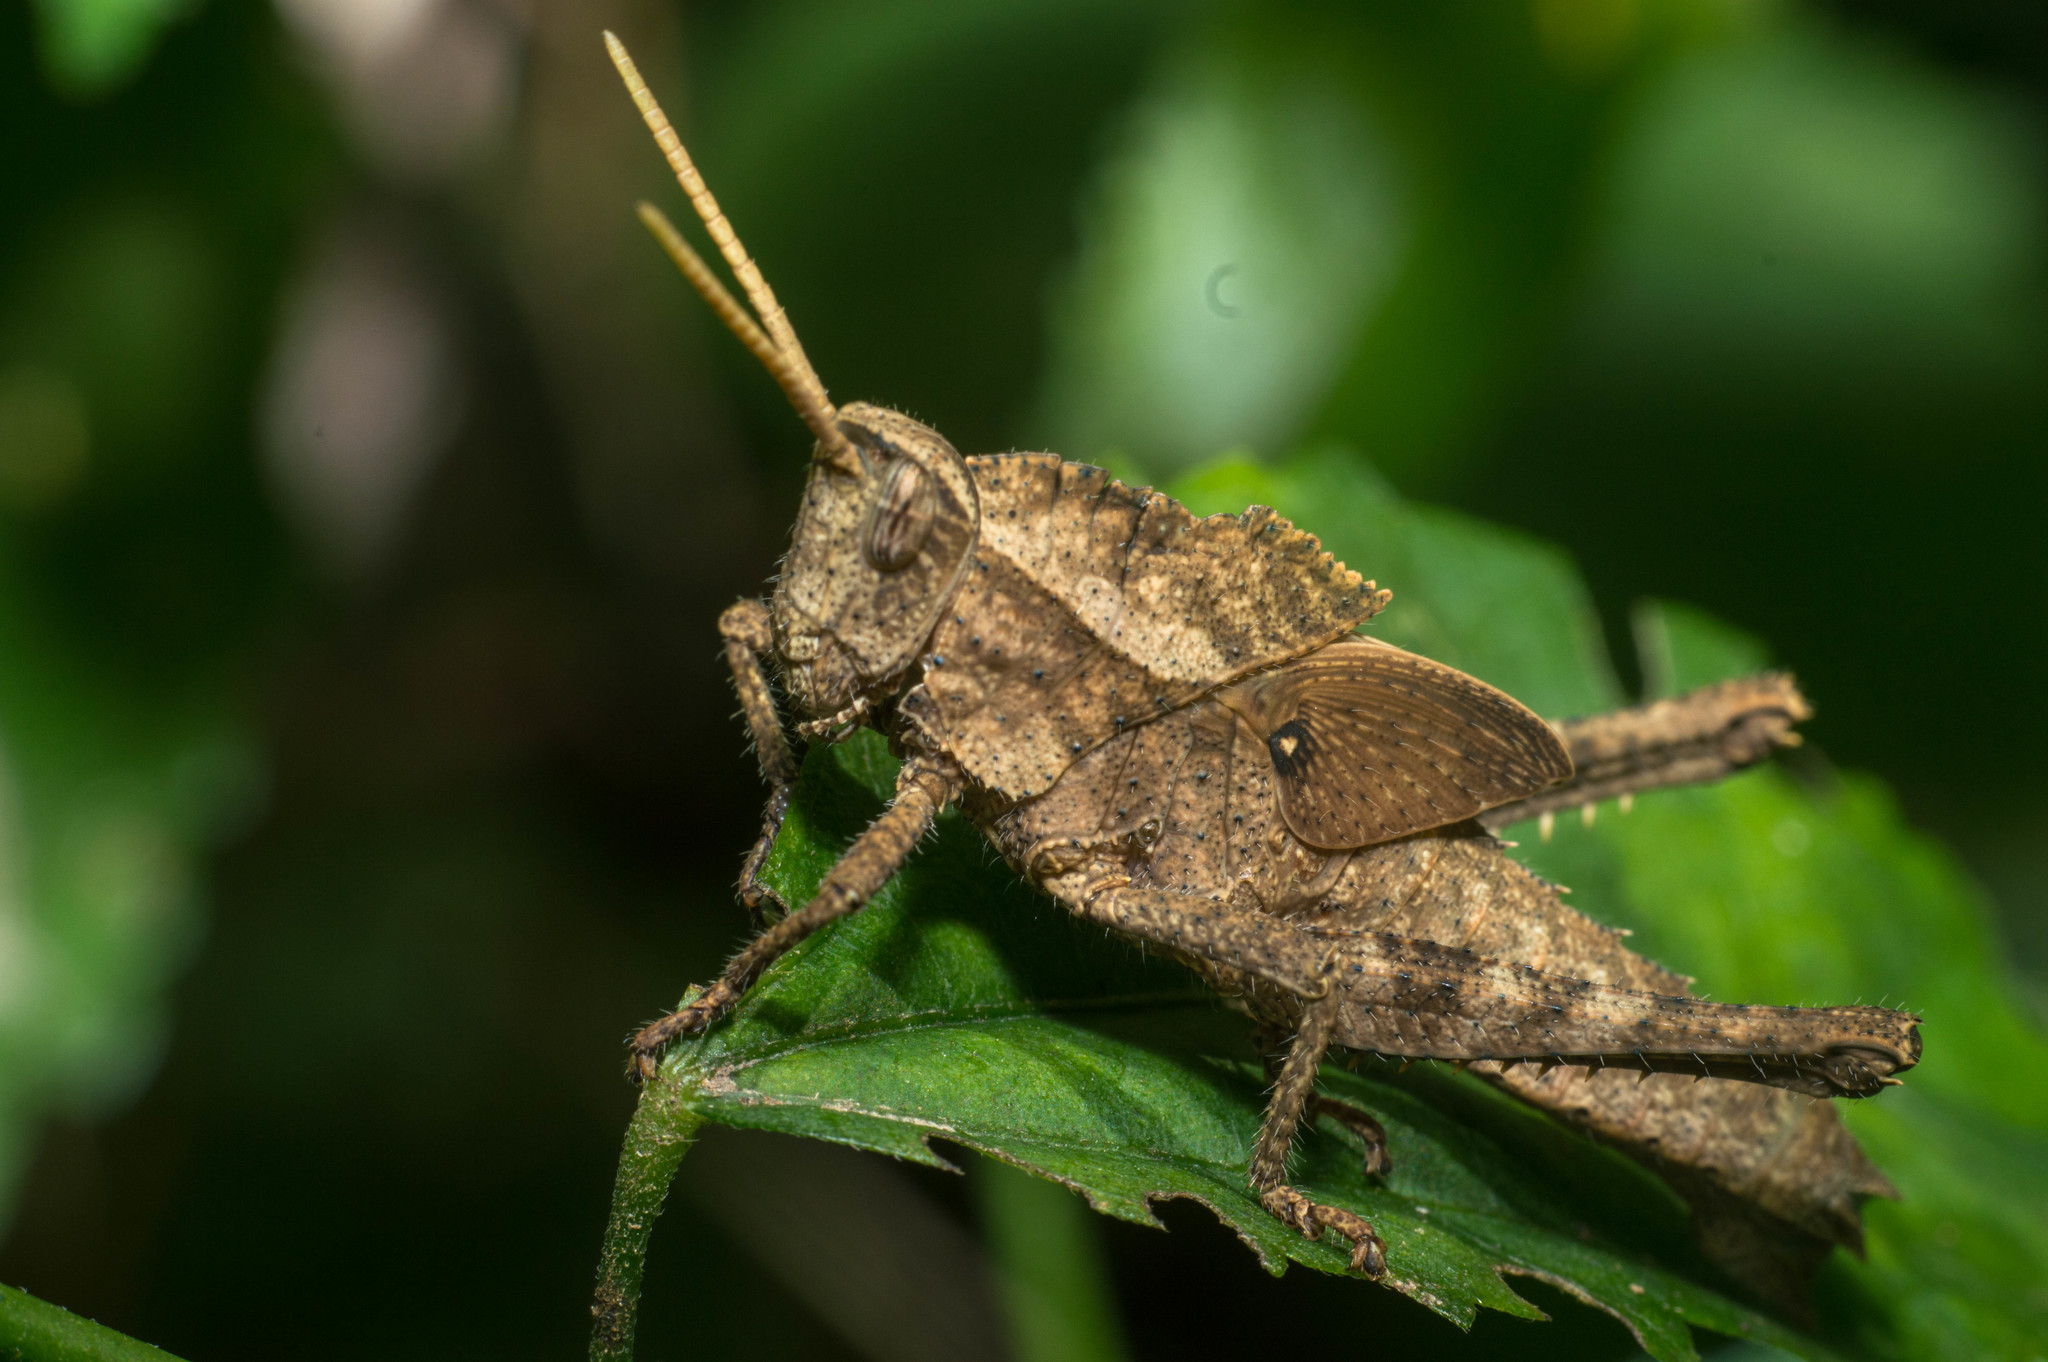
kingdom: Animalia
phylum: Arthropoda
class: Insecta
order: Orthoptera
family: Romaleidae
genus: Xyleus
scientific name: Xyleus discoideus
